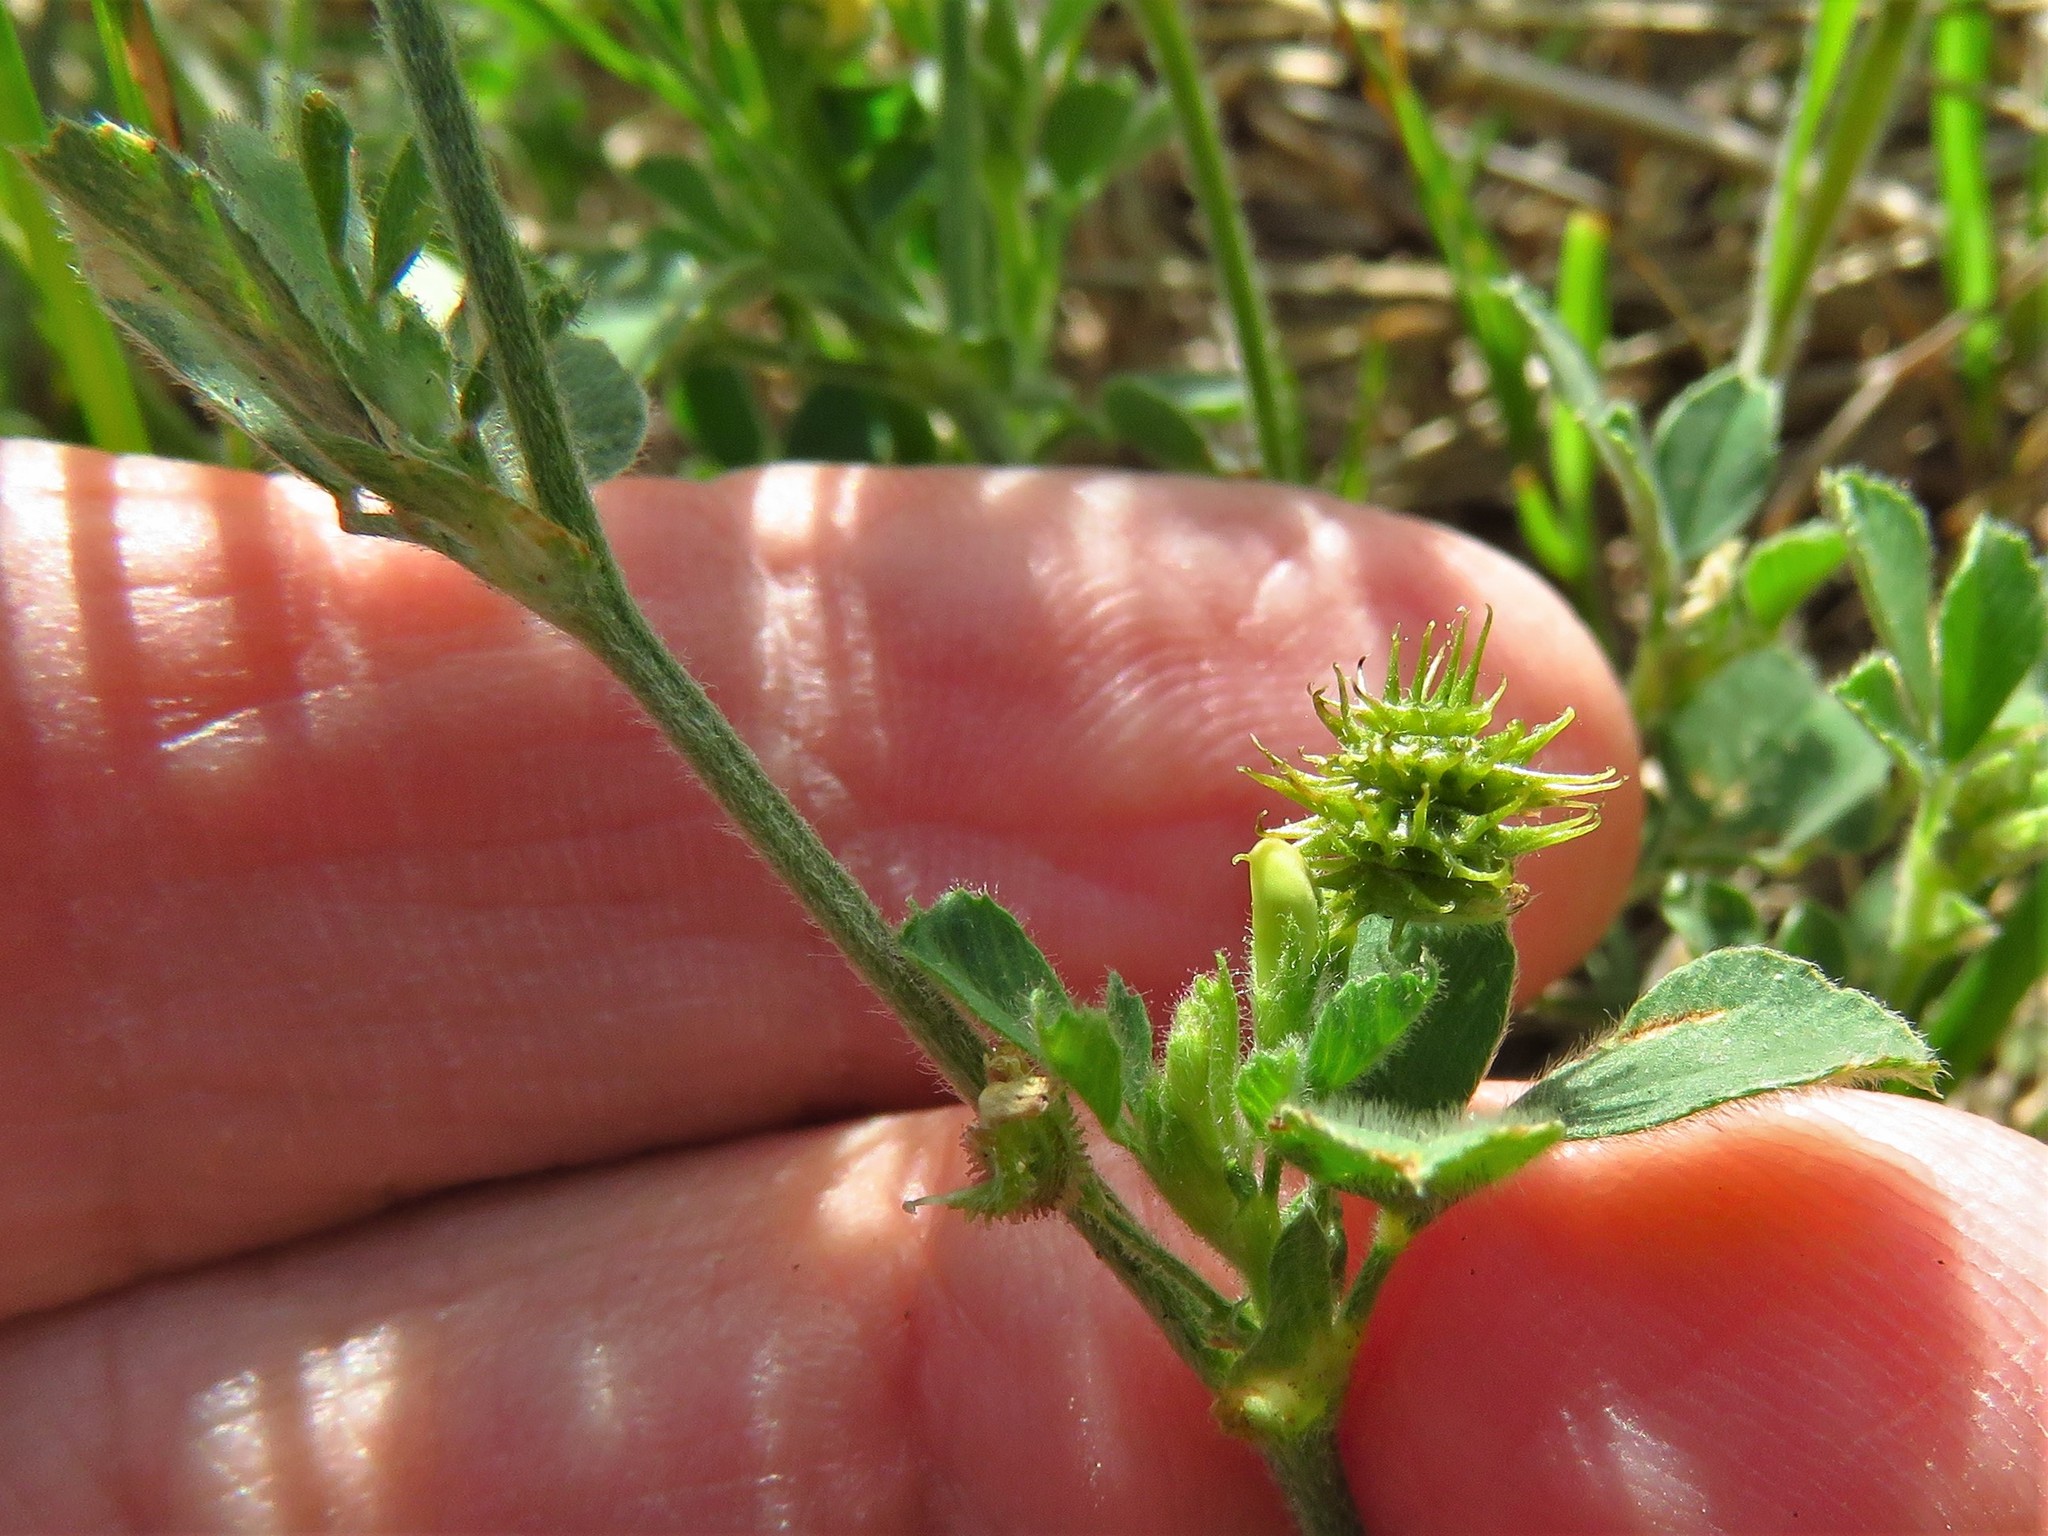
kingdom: Plantae
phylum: Tracheophyta
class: Magnoliopsida
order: Fabales
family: Fabaceae
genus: Medicago
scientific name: Medicago minima
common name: Little bur-clover
